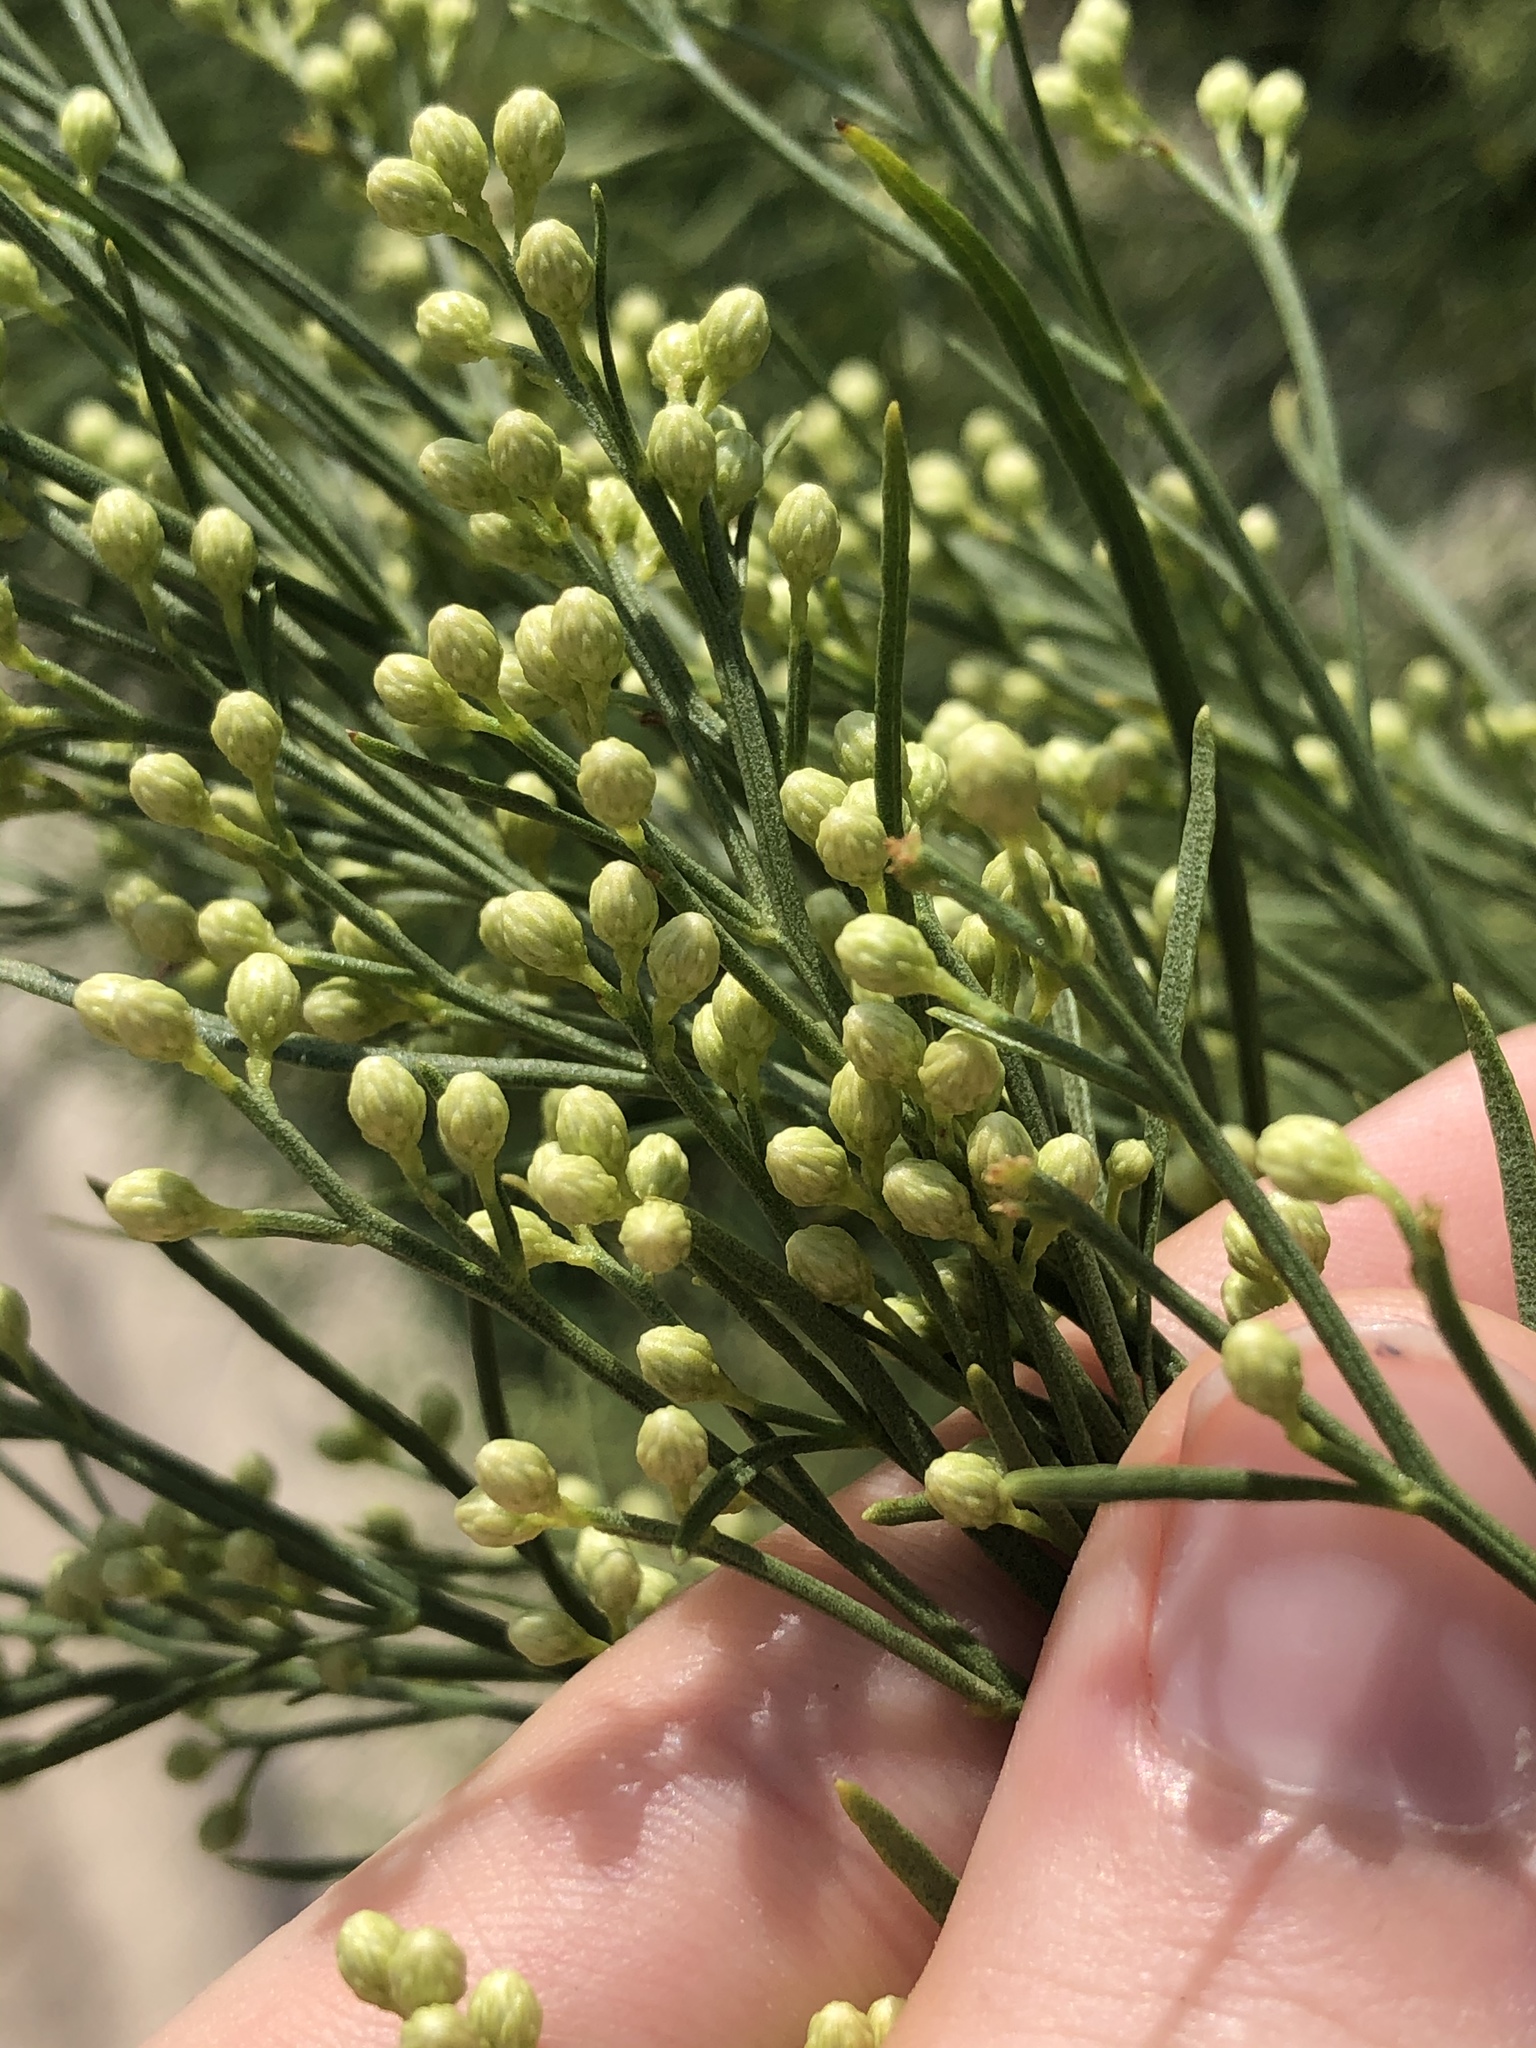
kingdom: Plantae
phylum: Tracheophyta
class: Magnoliopsida
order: Asterales
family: Asteraceae
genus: Baccharis
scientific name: Baccharis neglecta
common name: Roosevelt-weed
